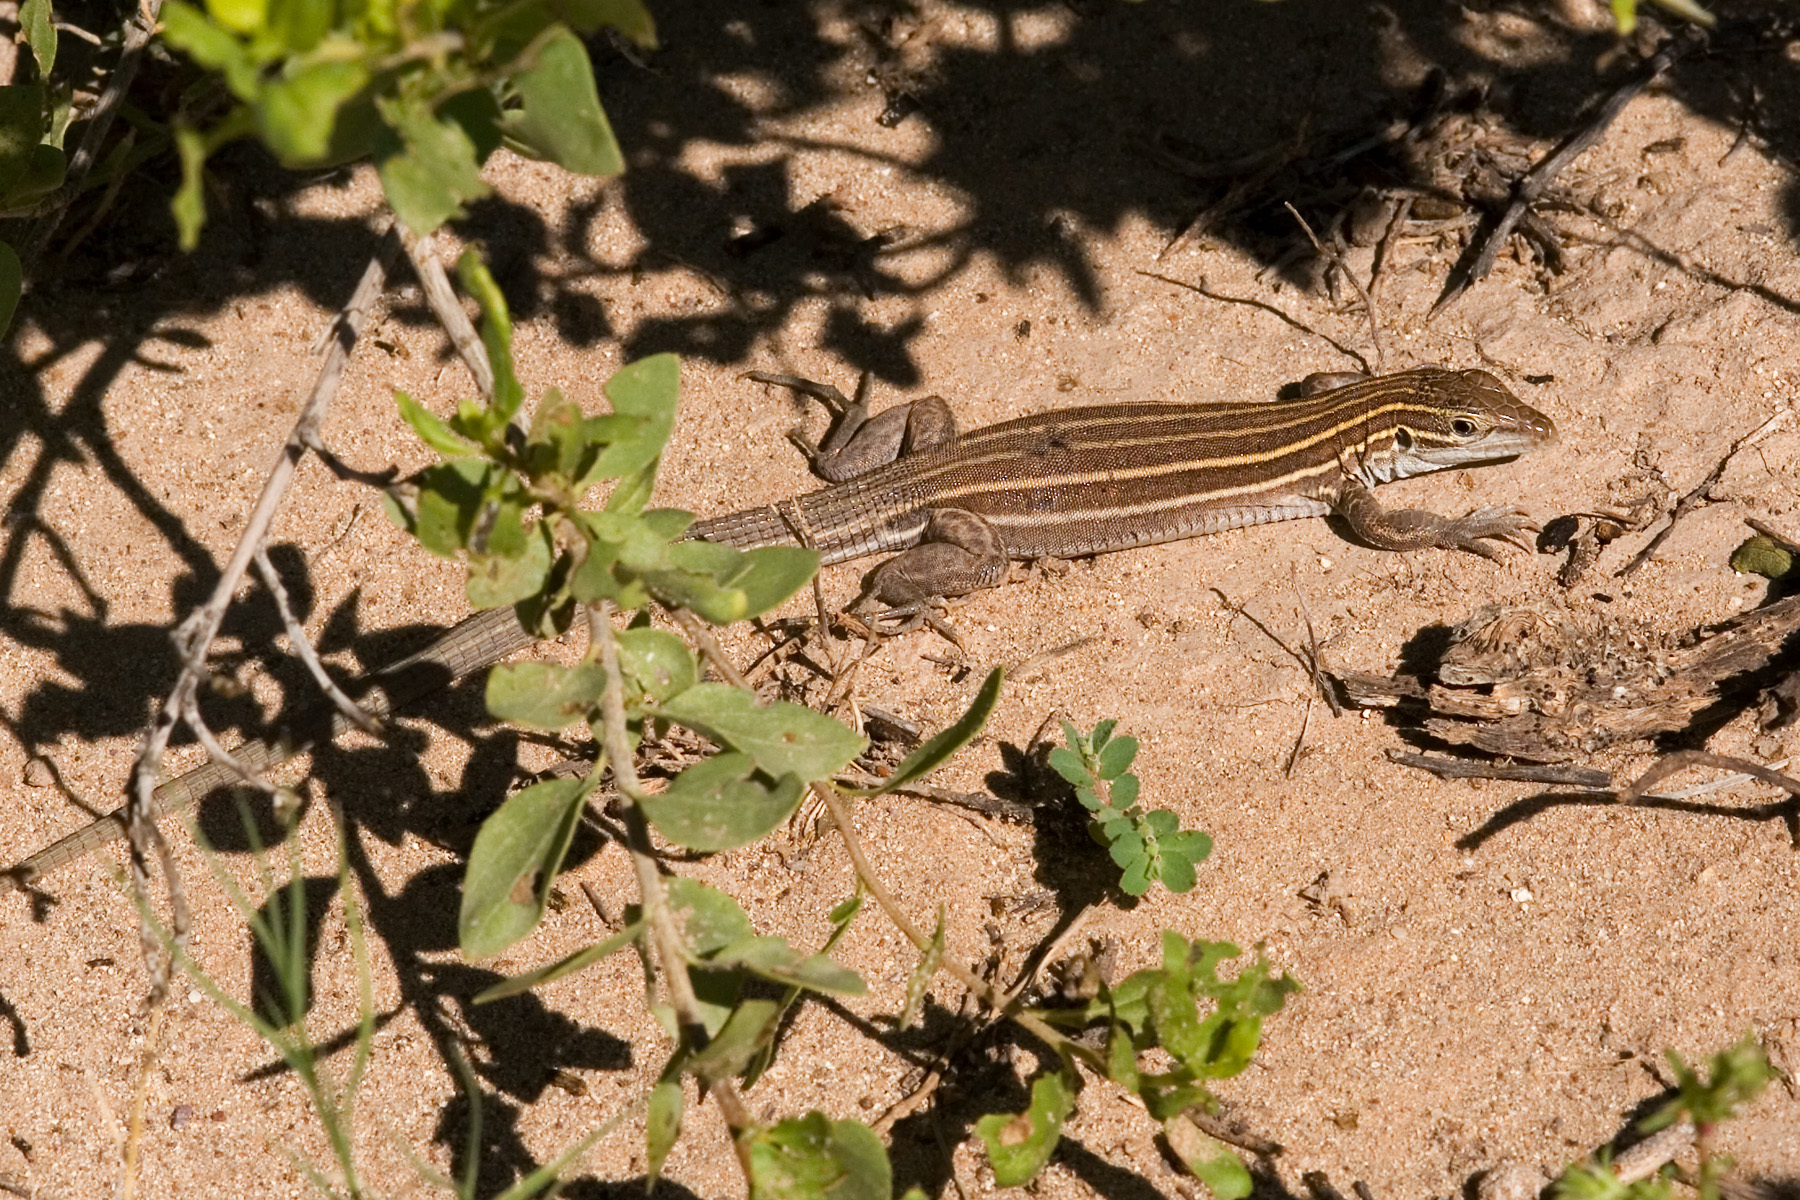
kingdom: Animalia
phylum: Chordata
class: Squamata
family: Teiidae
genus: Aspidoscelis
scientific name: Aspidoscelis uniparens
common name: Desert grassland whiptail
